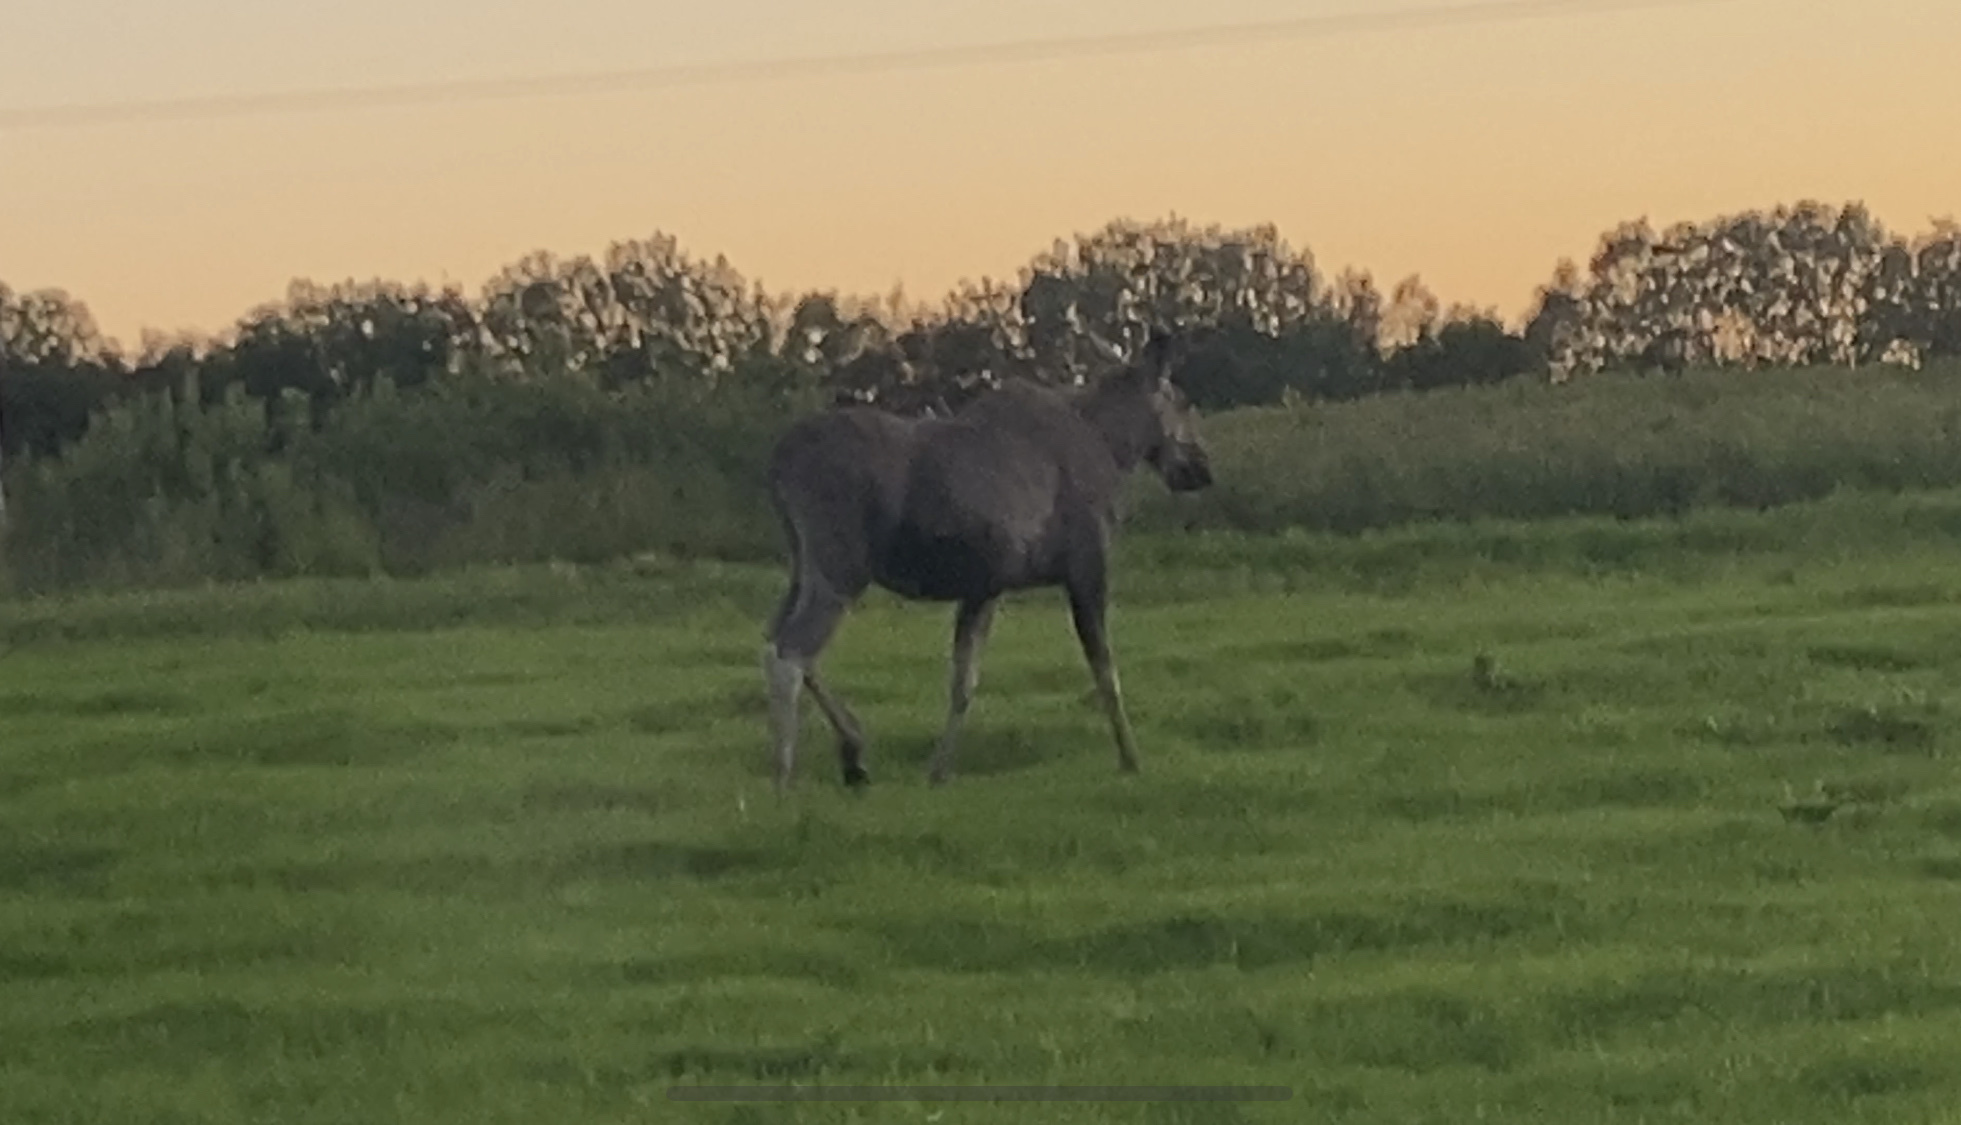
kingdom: Animalia
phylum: Chordata
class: Mammalia
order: Artiodactyla
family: Cervidae
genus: Alces
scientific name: Alces alces
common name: Moose
